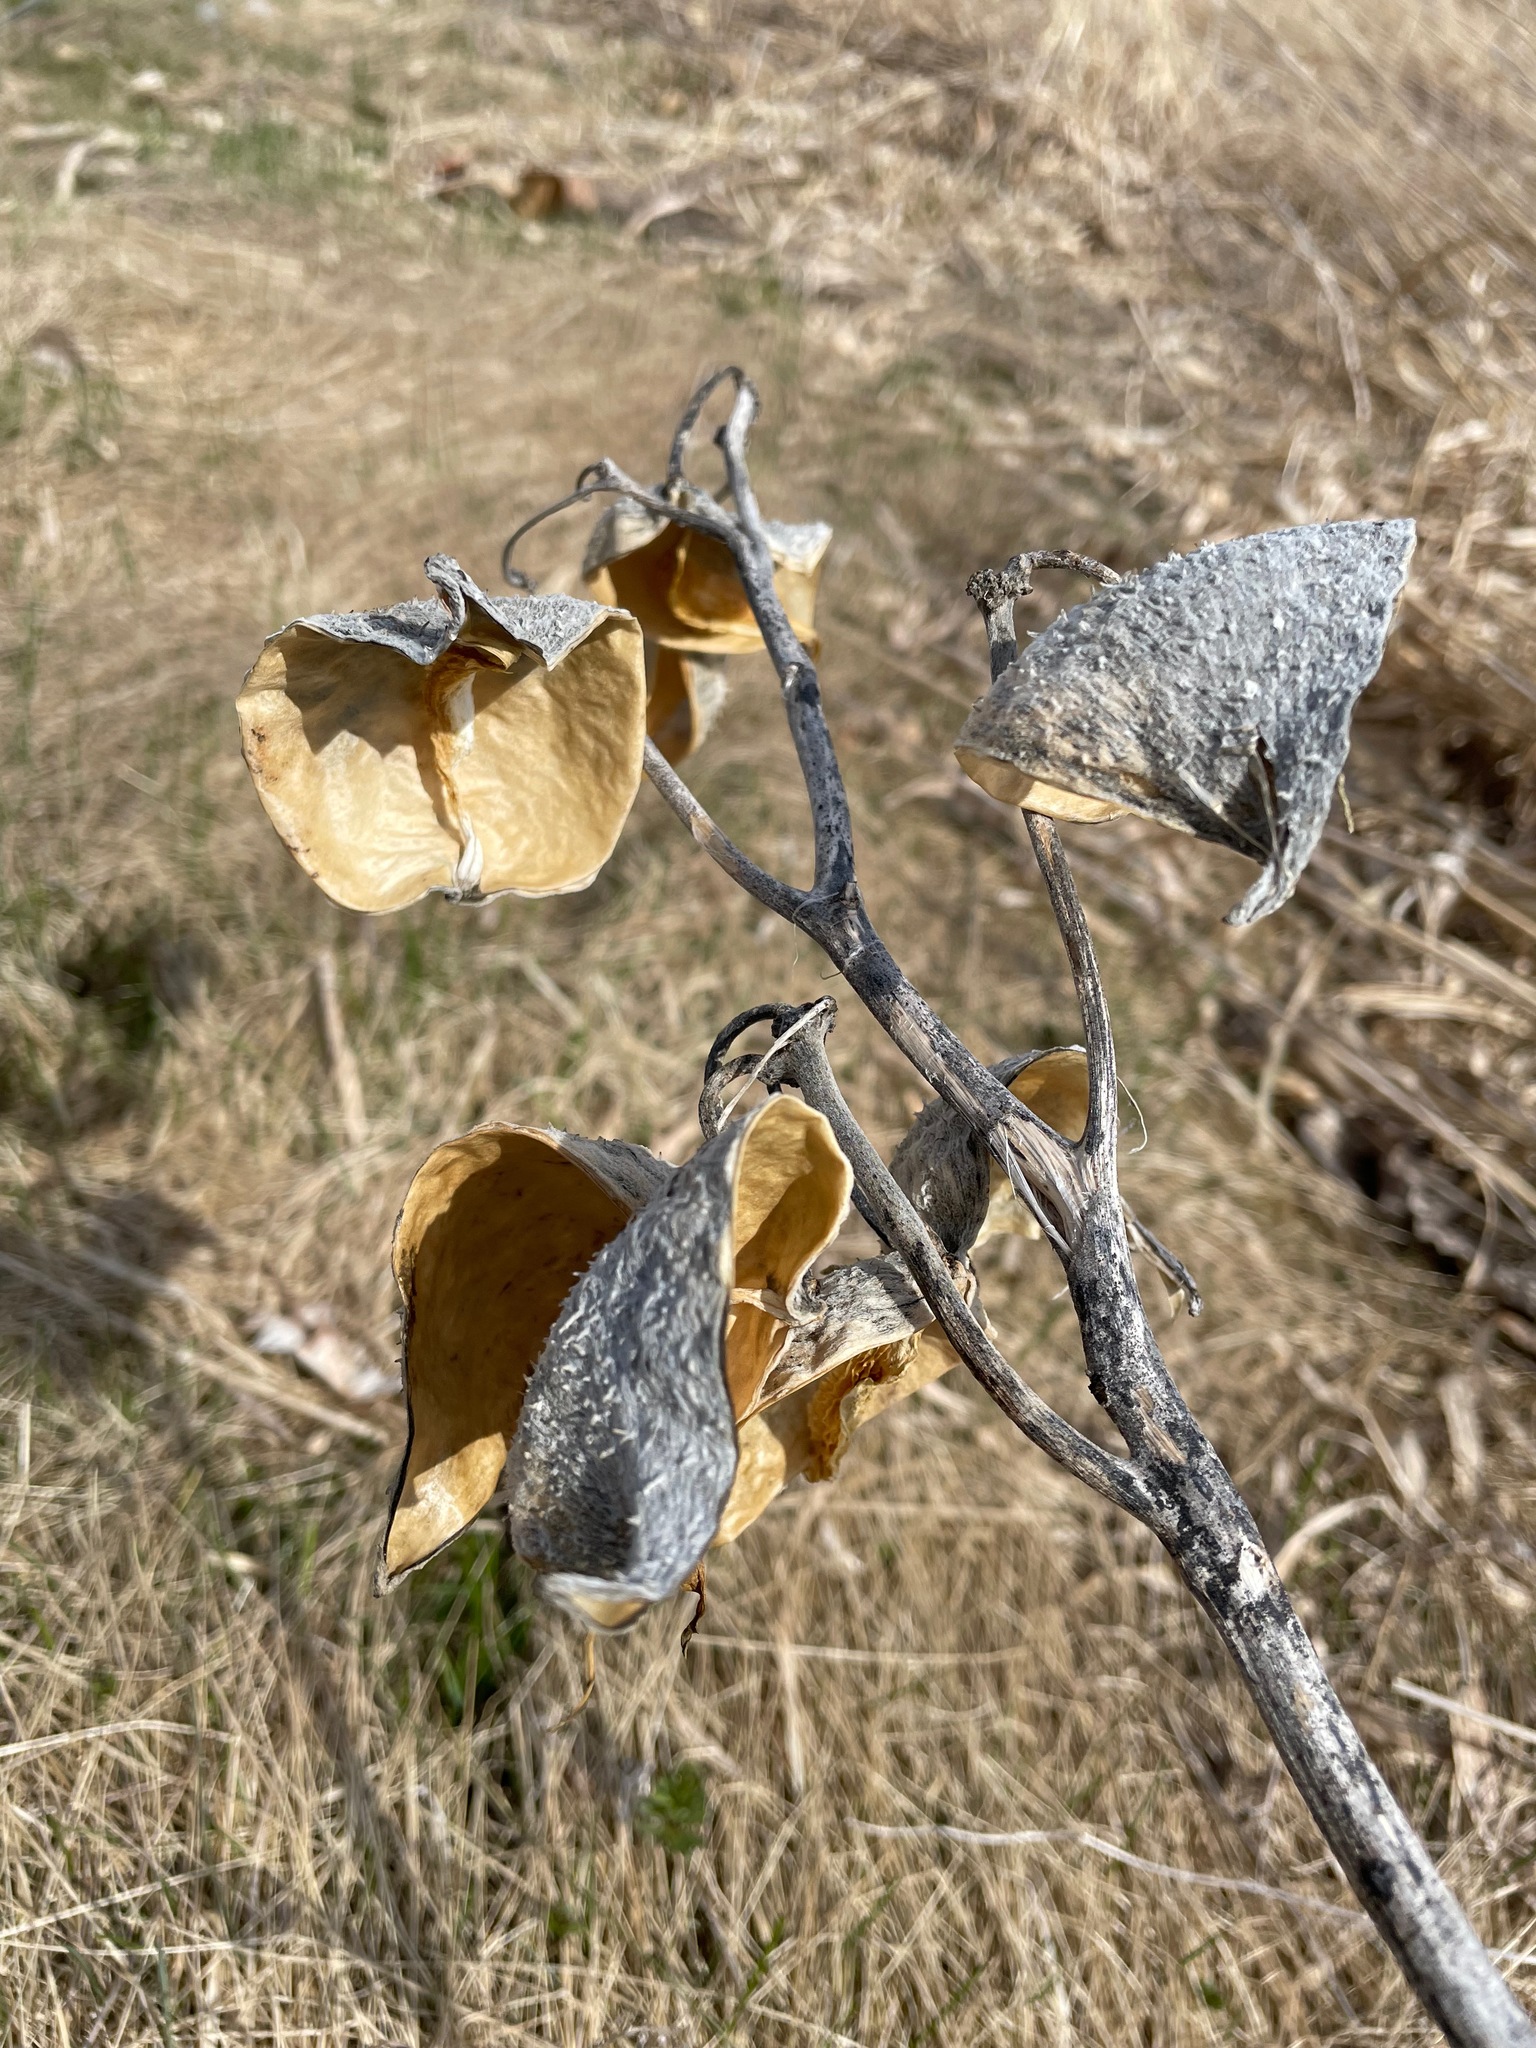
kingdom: Plantae
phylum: Tracheophyta
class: Magnoliopsida
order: Gentianales
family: Apocynaceae
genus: Asclepias
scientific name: Asclepias syriaca
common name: Common milkweed
